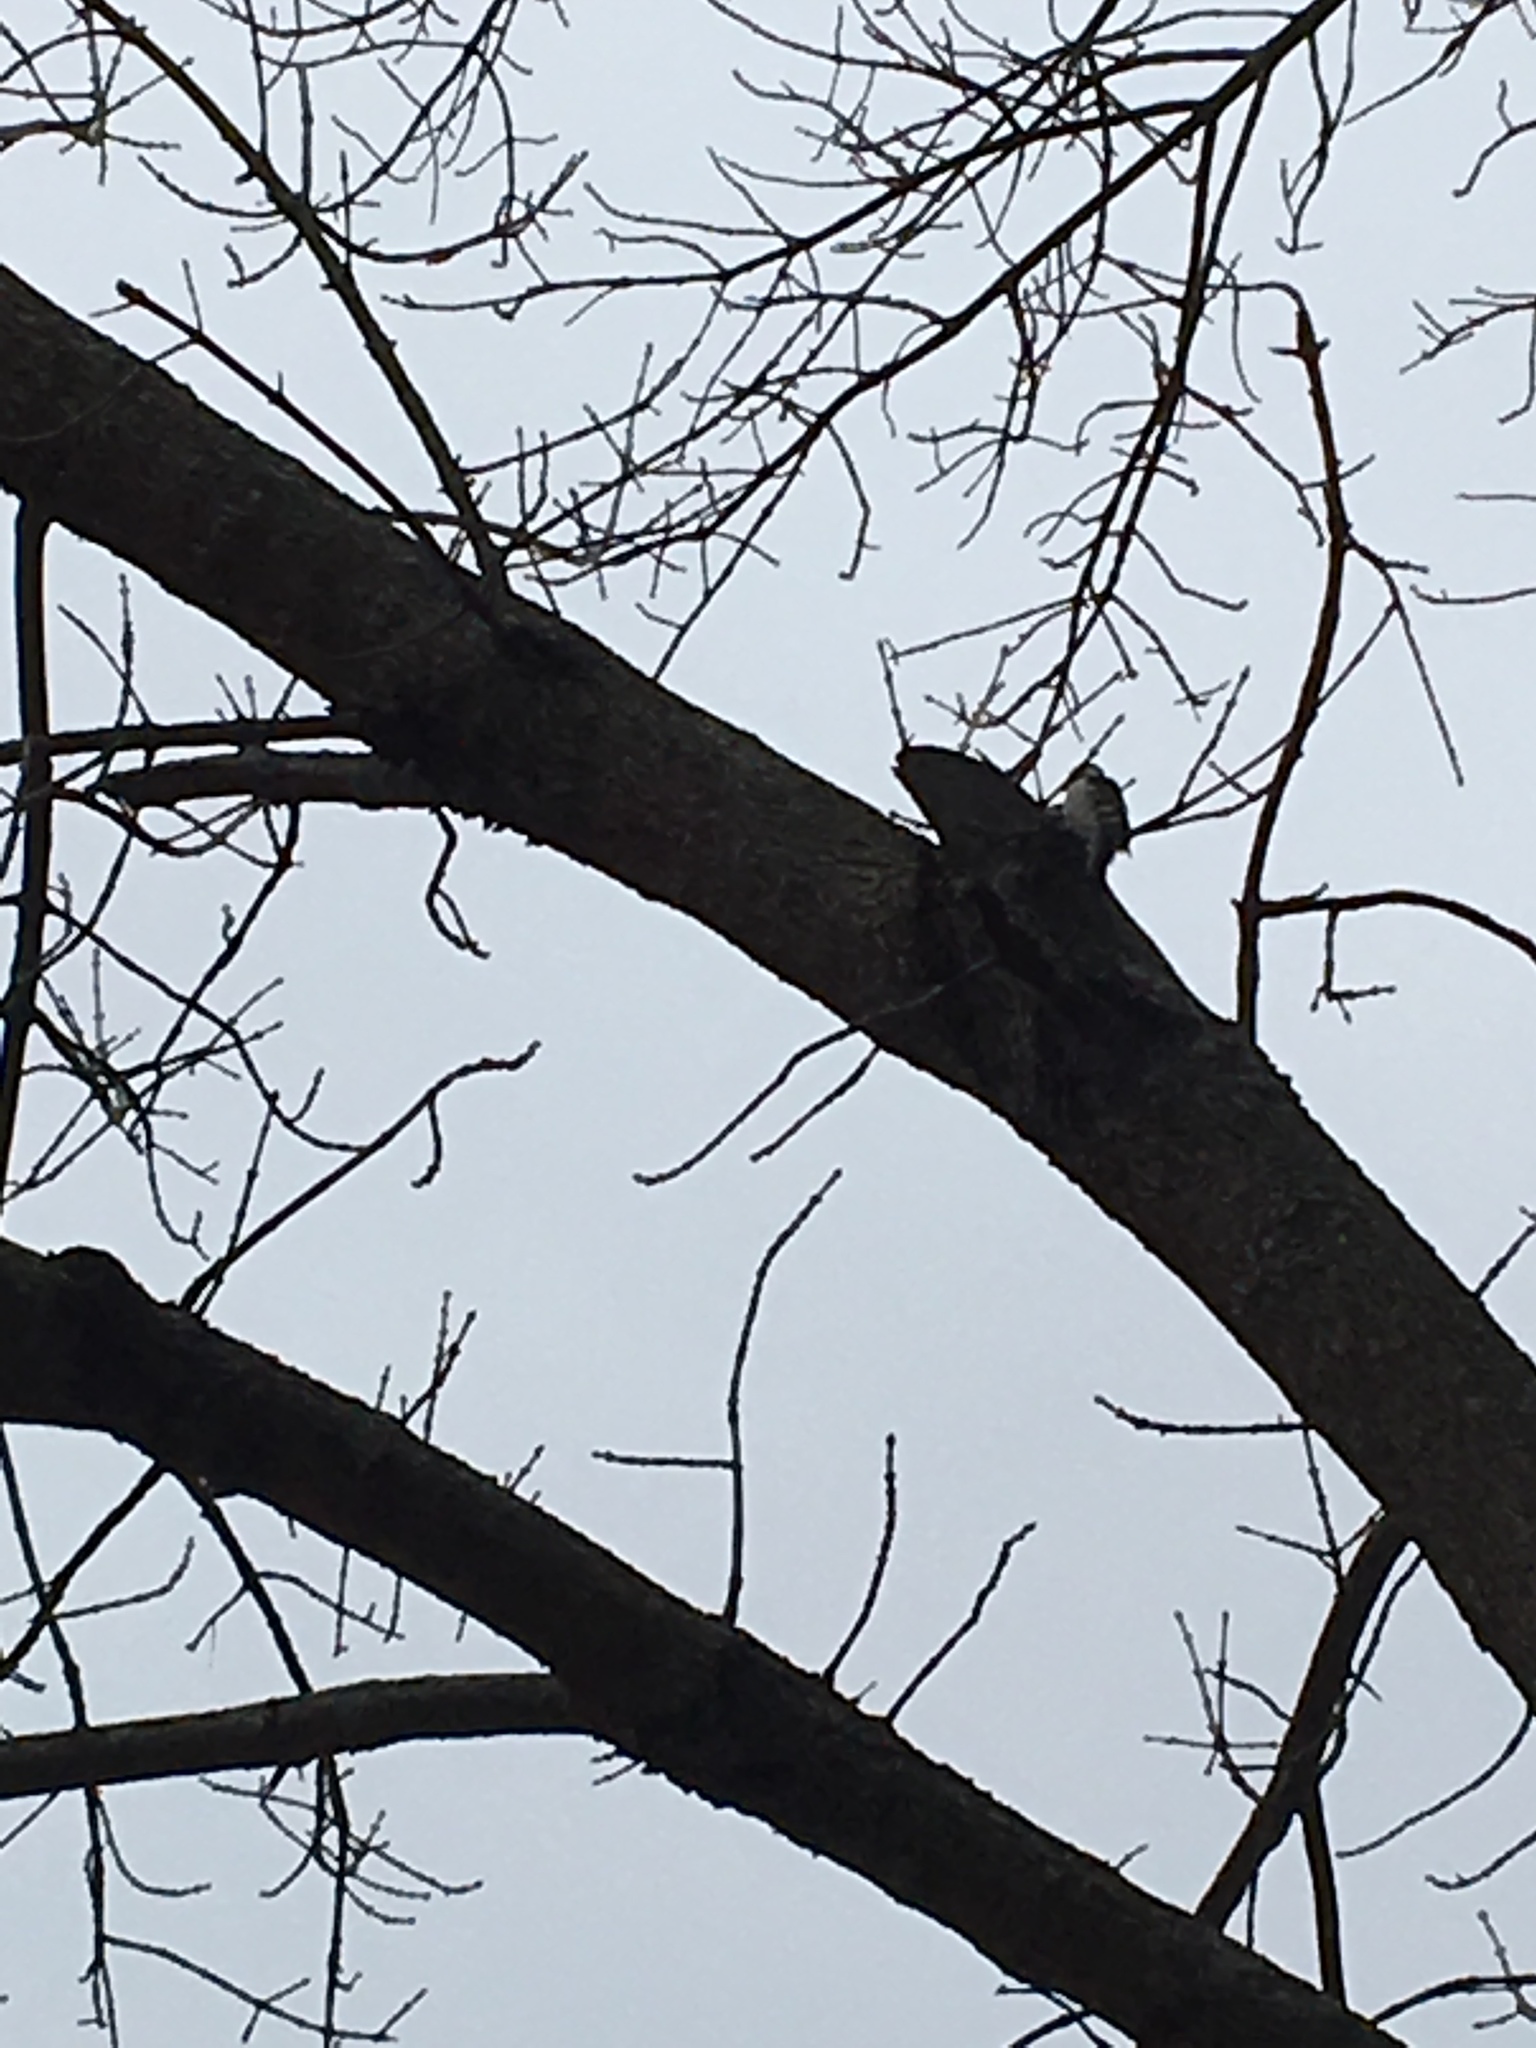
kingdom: Animalia
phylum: Chordata
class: Aves
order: Piciformes
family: Picidae
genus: Dryobates
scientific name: Dryobates pubescens
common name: Downy woodpecker
